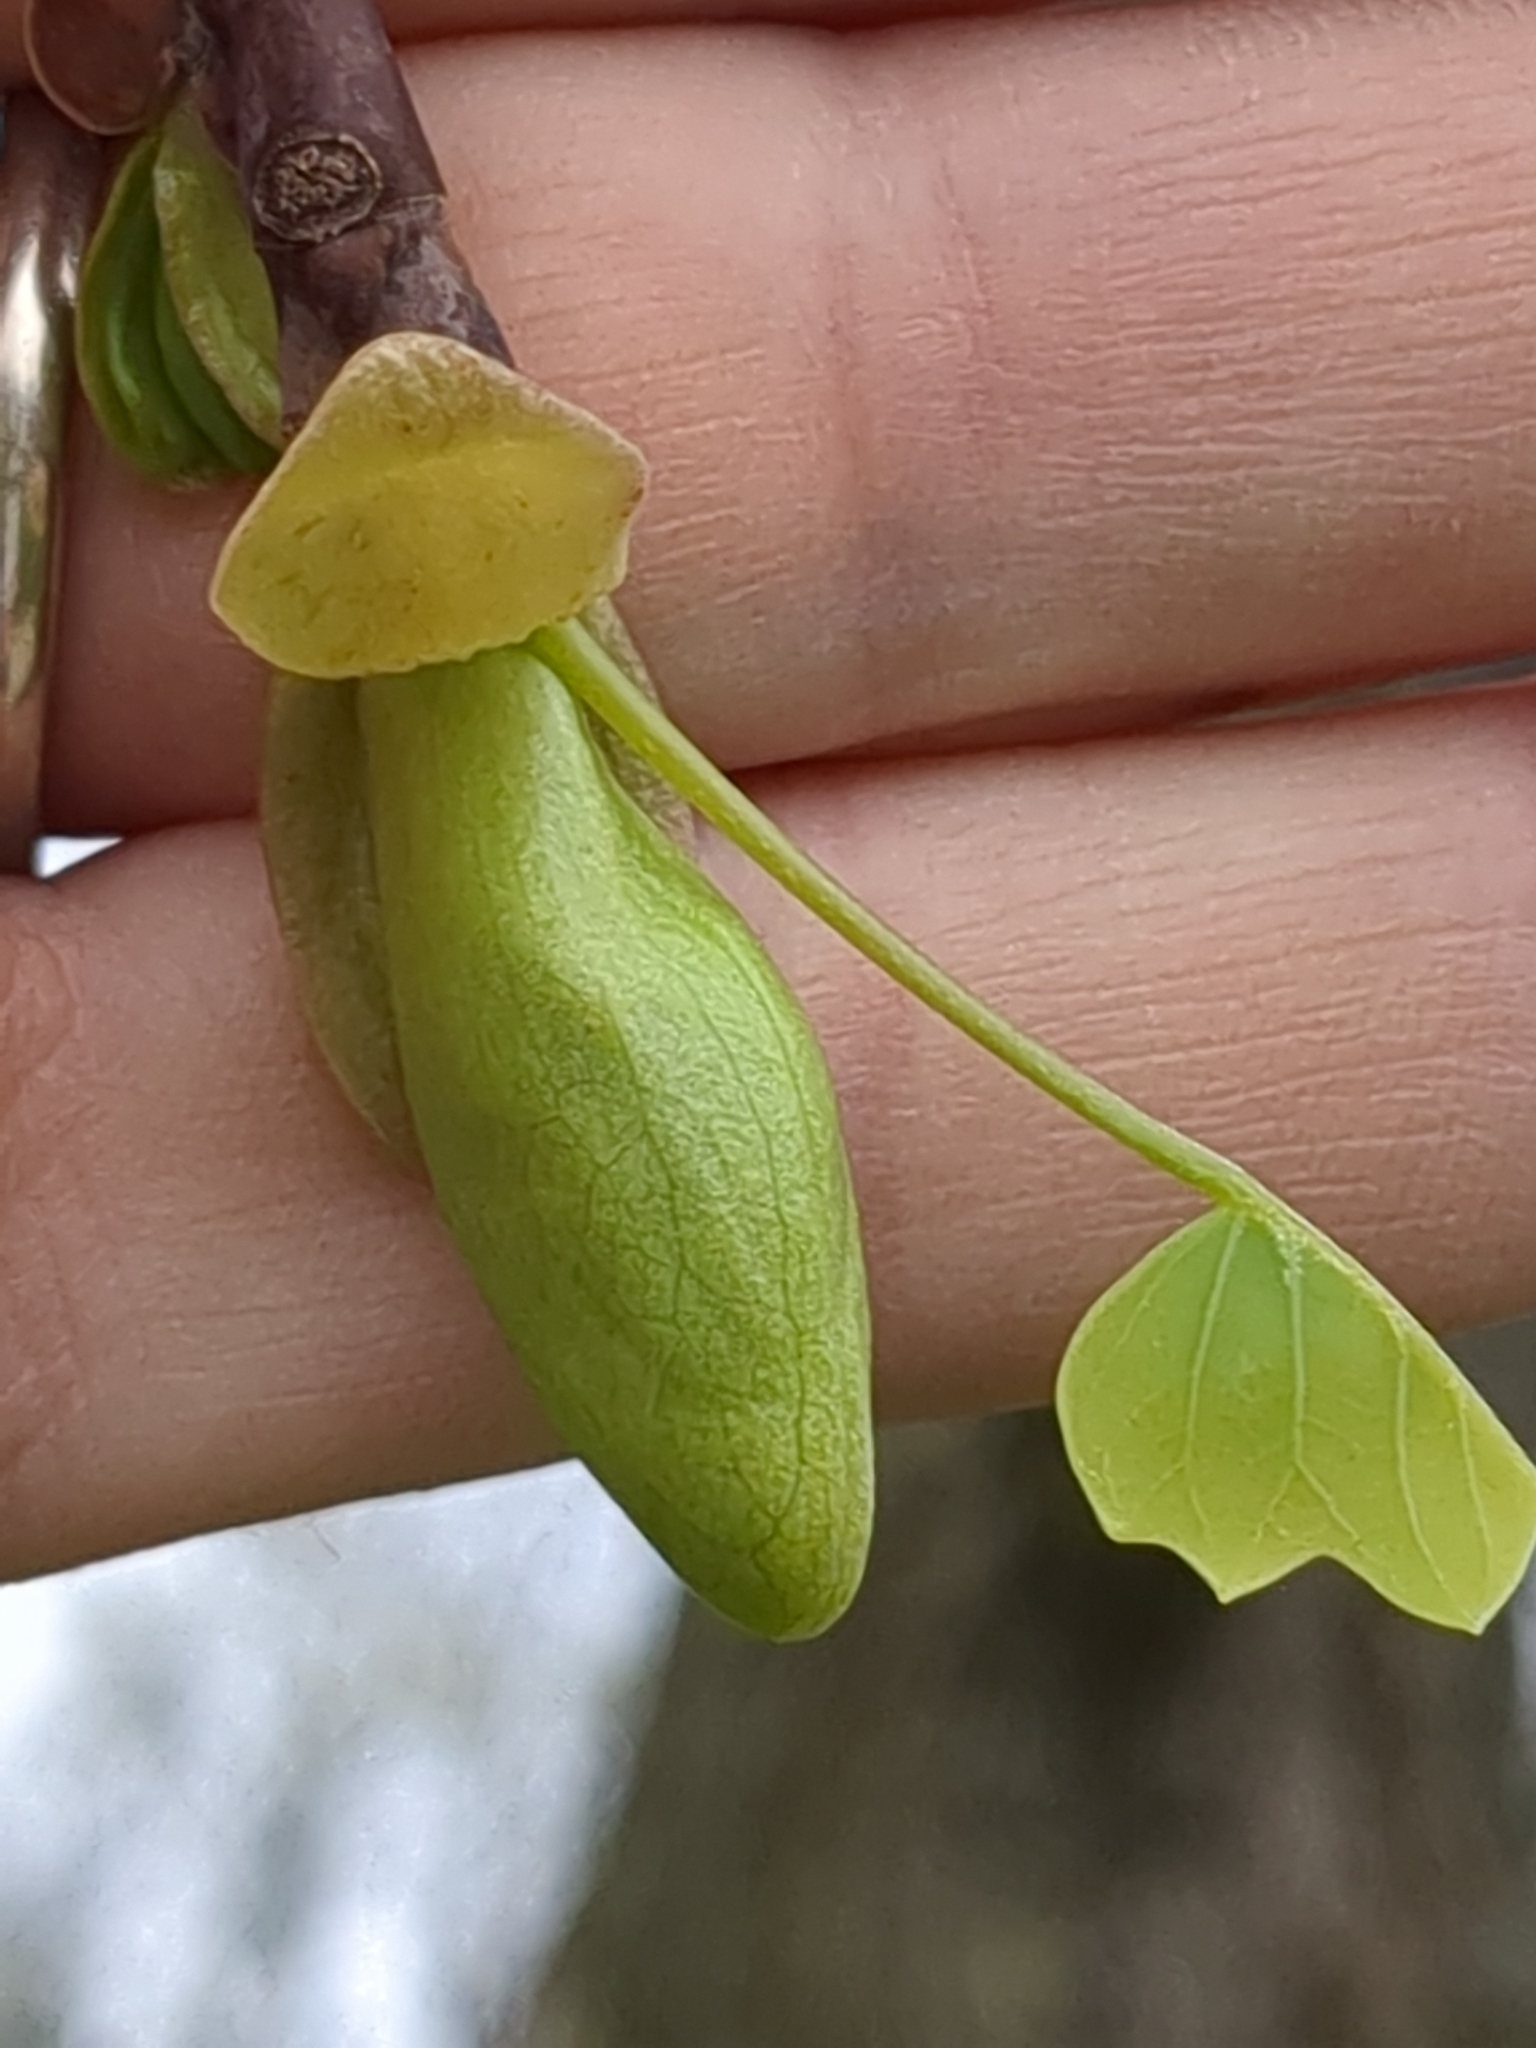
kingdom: Plantae
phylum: Tracheophyta
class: Magnoliopsida
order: Magnoliales
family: Magnoliaceae
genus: Liriodendron
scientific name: Liriodendron tulipifera
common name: Tulip tree
